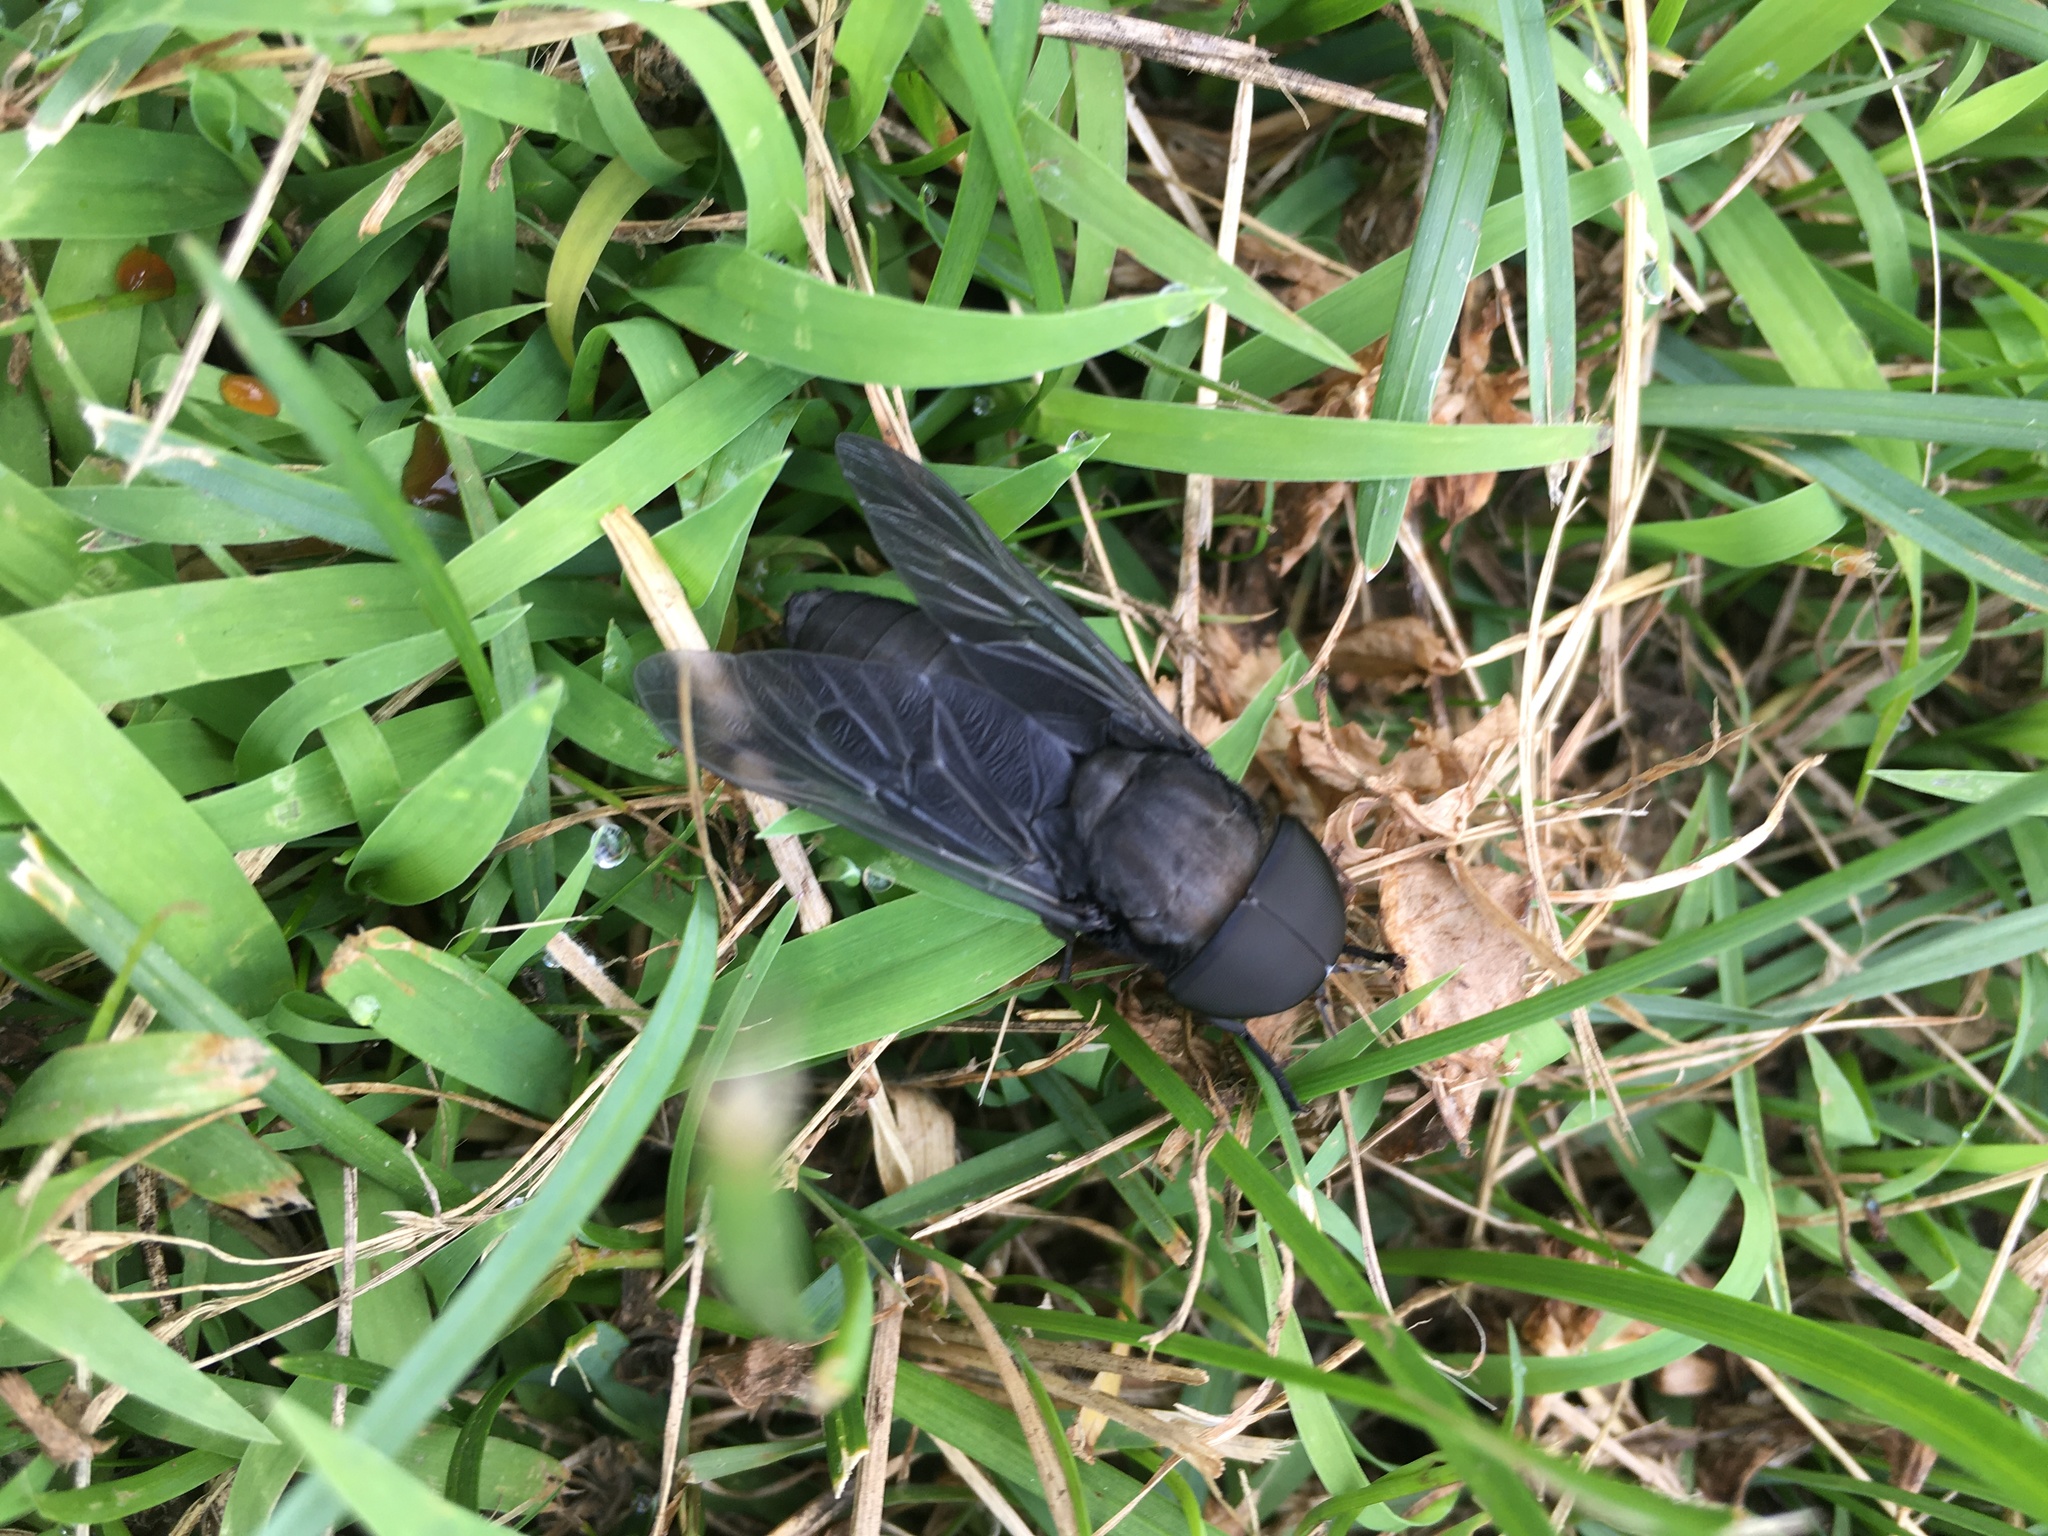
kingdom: Animalia
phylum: Arthropoda
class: Insecta
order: Diptera
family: Tabanidae
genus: Tabanus
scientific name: Tabanus atratus
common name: Black horse fly
